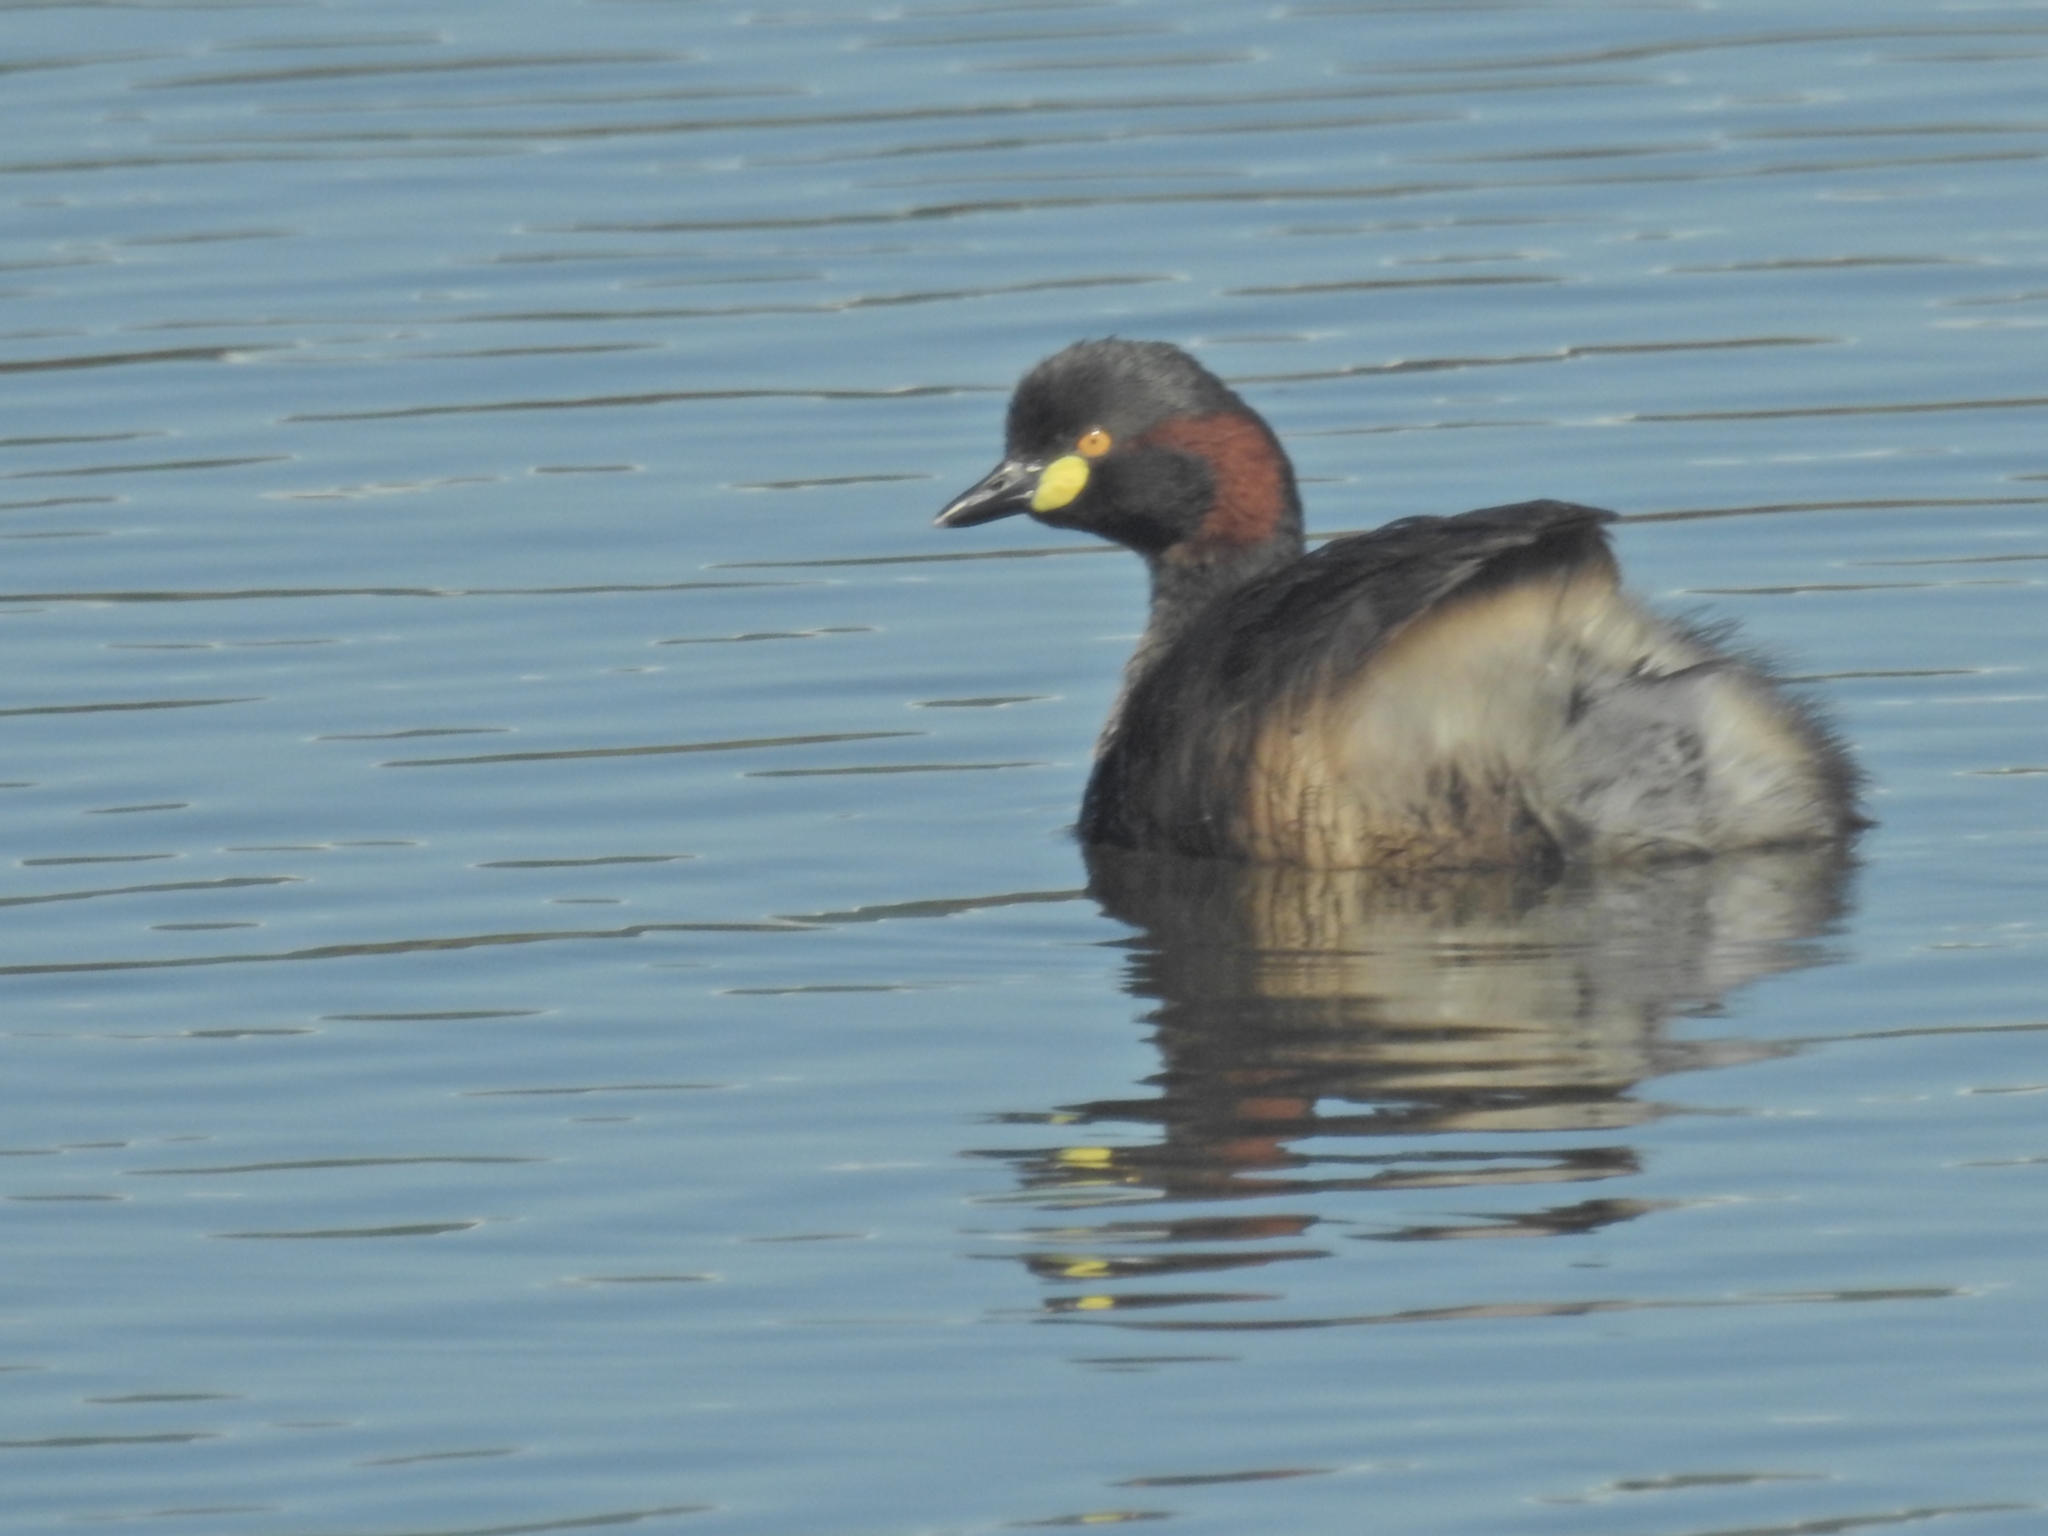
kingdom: Animalia
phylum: Chordata
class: Aves
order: Podicipediformes
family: Podicipedidae
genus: Tachybaptus
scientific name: Tachybaptus novaehollandiae
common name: Australasian grebe
